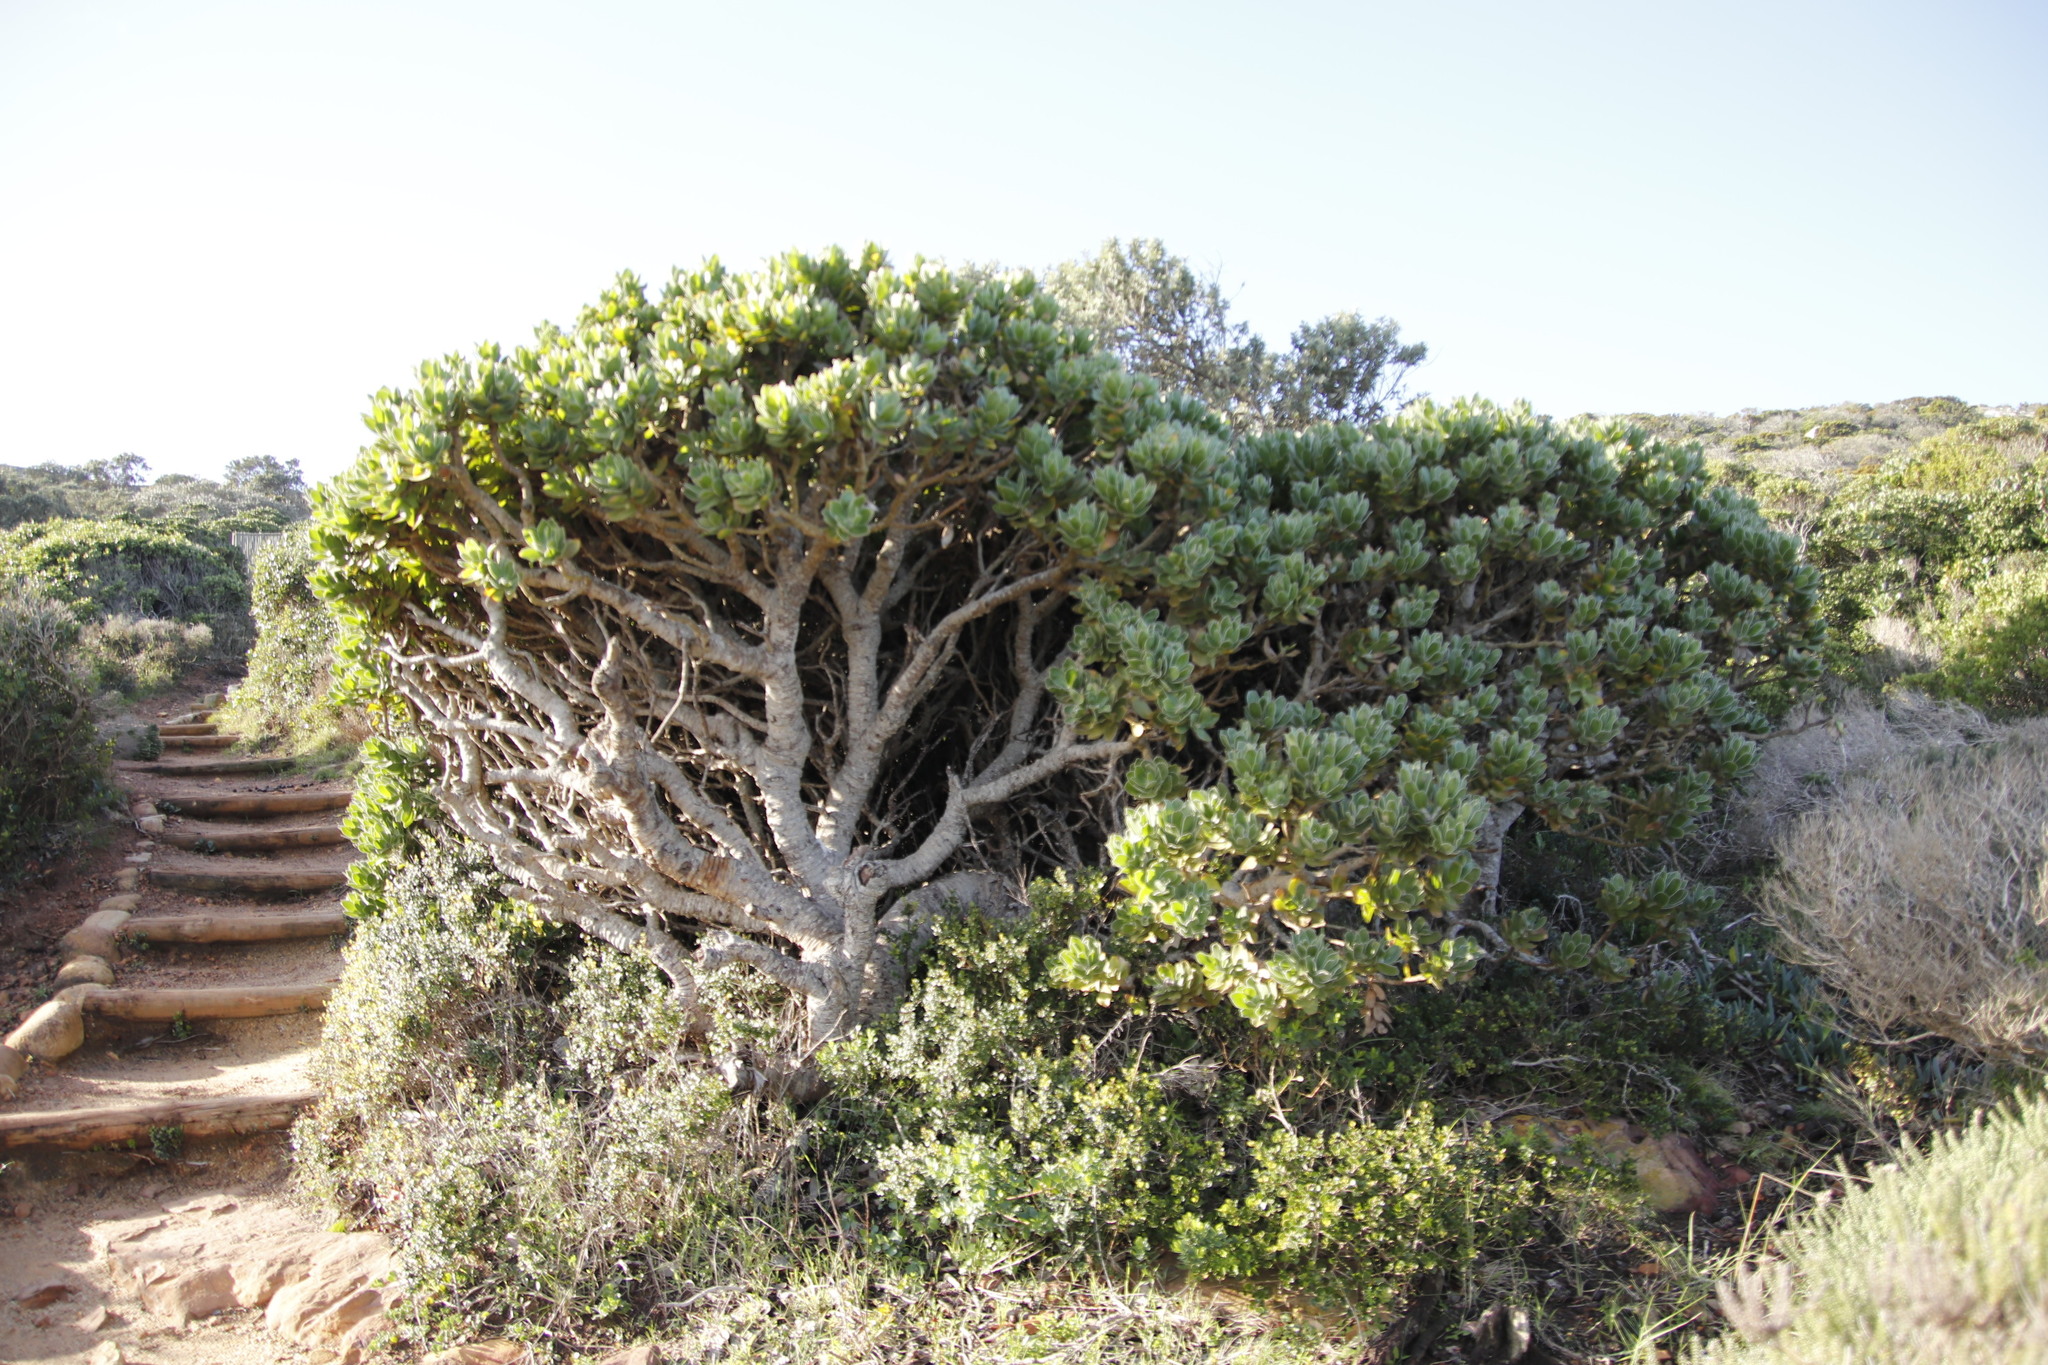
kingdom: Plantae
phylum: Tracheophyta
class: Magnoliopsida
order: Proteales
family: Proteaceae
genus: Leucospermum
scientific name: Leucospermum conocarpodendron
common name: Tree pincushion
